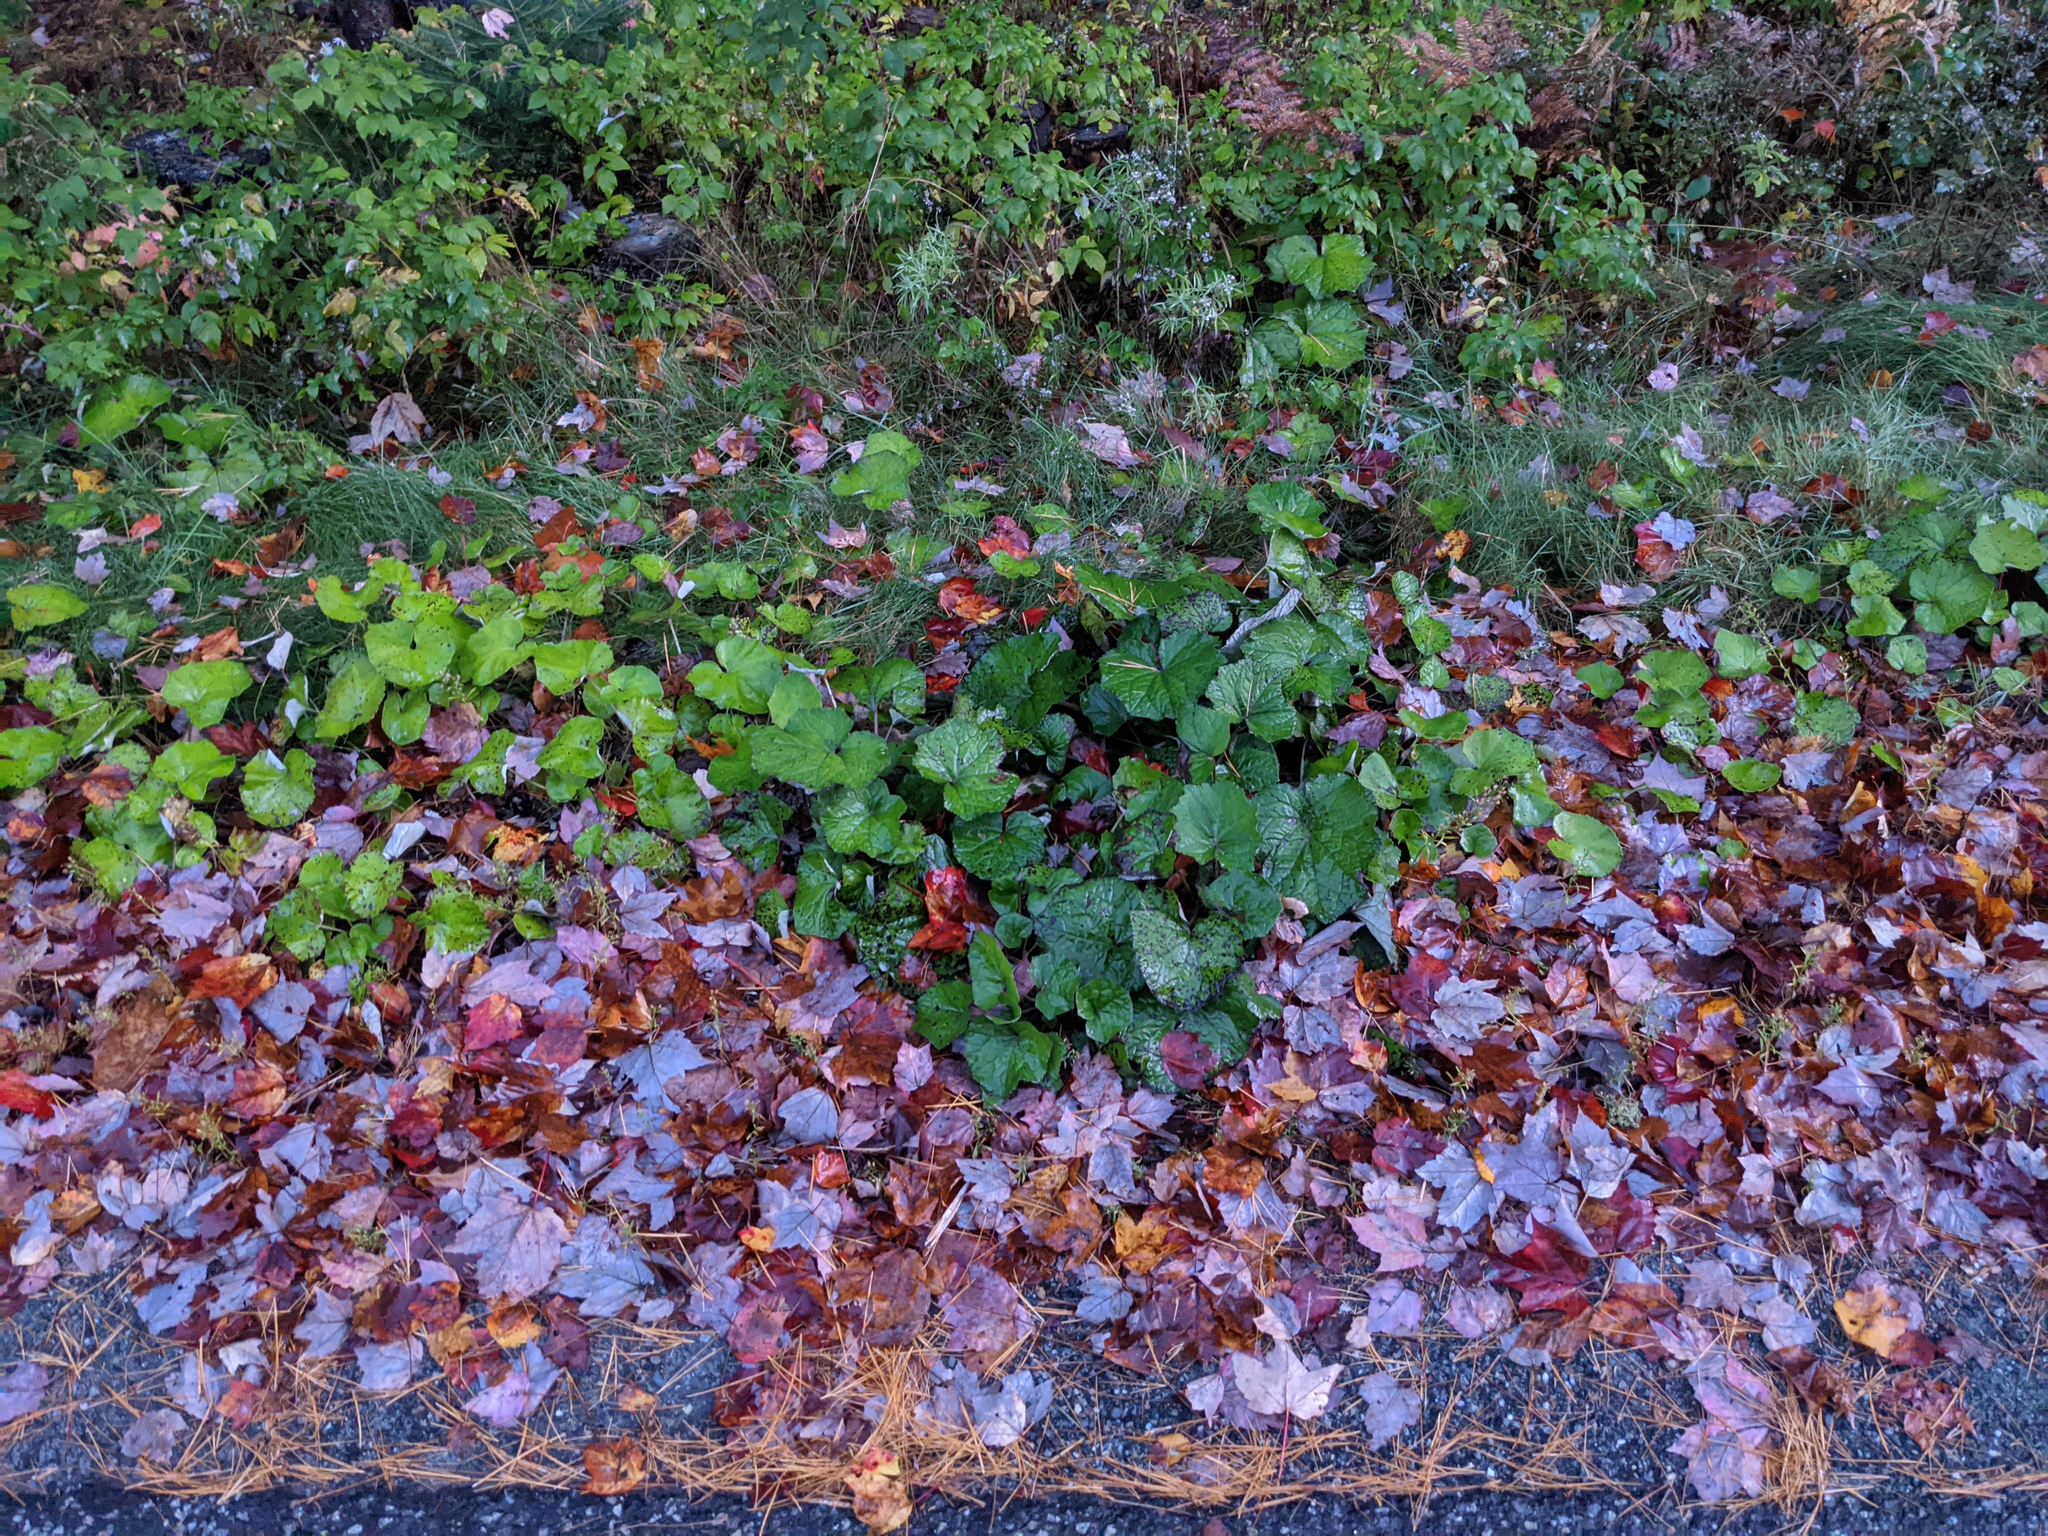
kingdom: Plantae
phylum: Tracheophyta
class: Magnoliopsida
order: Asterales
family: Asteraceae
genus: Tussilago
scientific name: Tussilago farfara
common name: Coltsfoot
